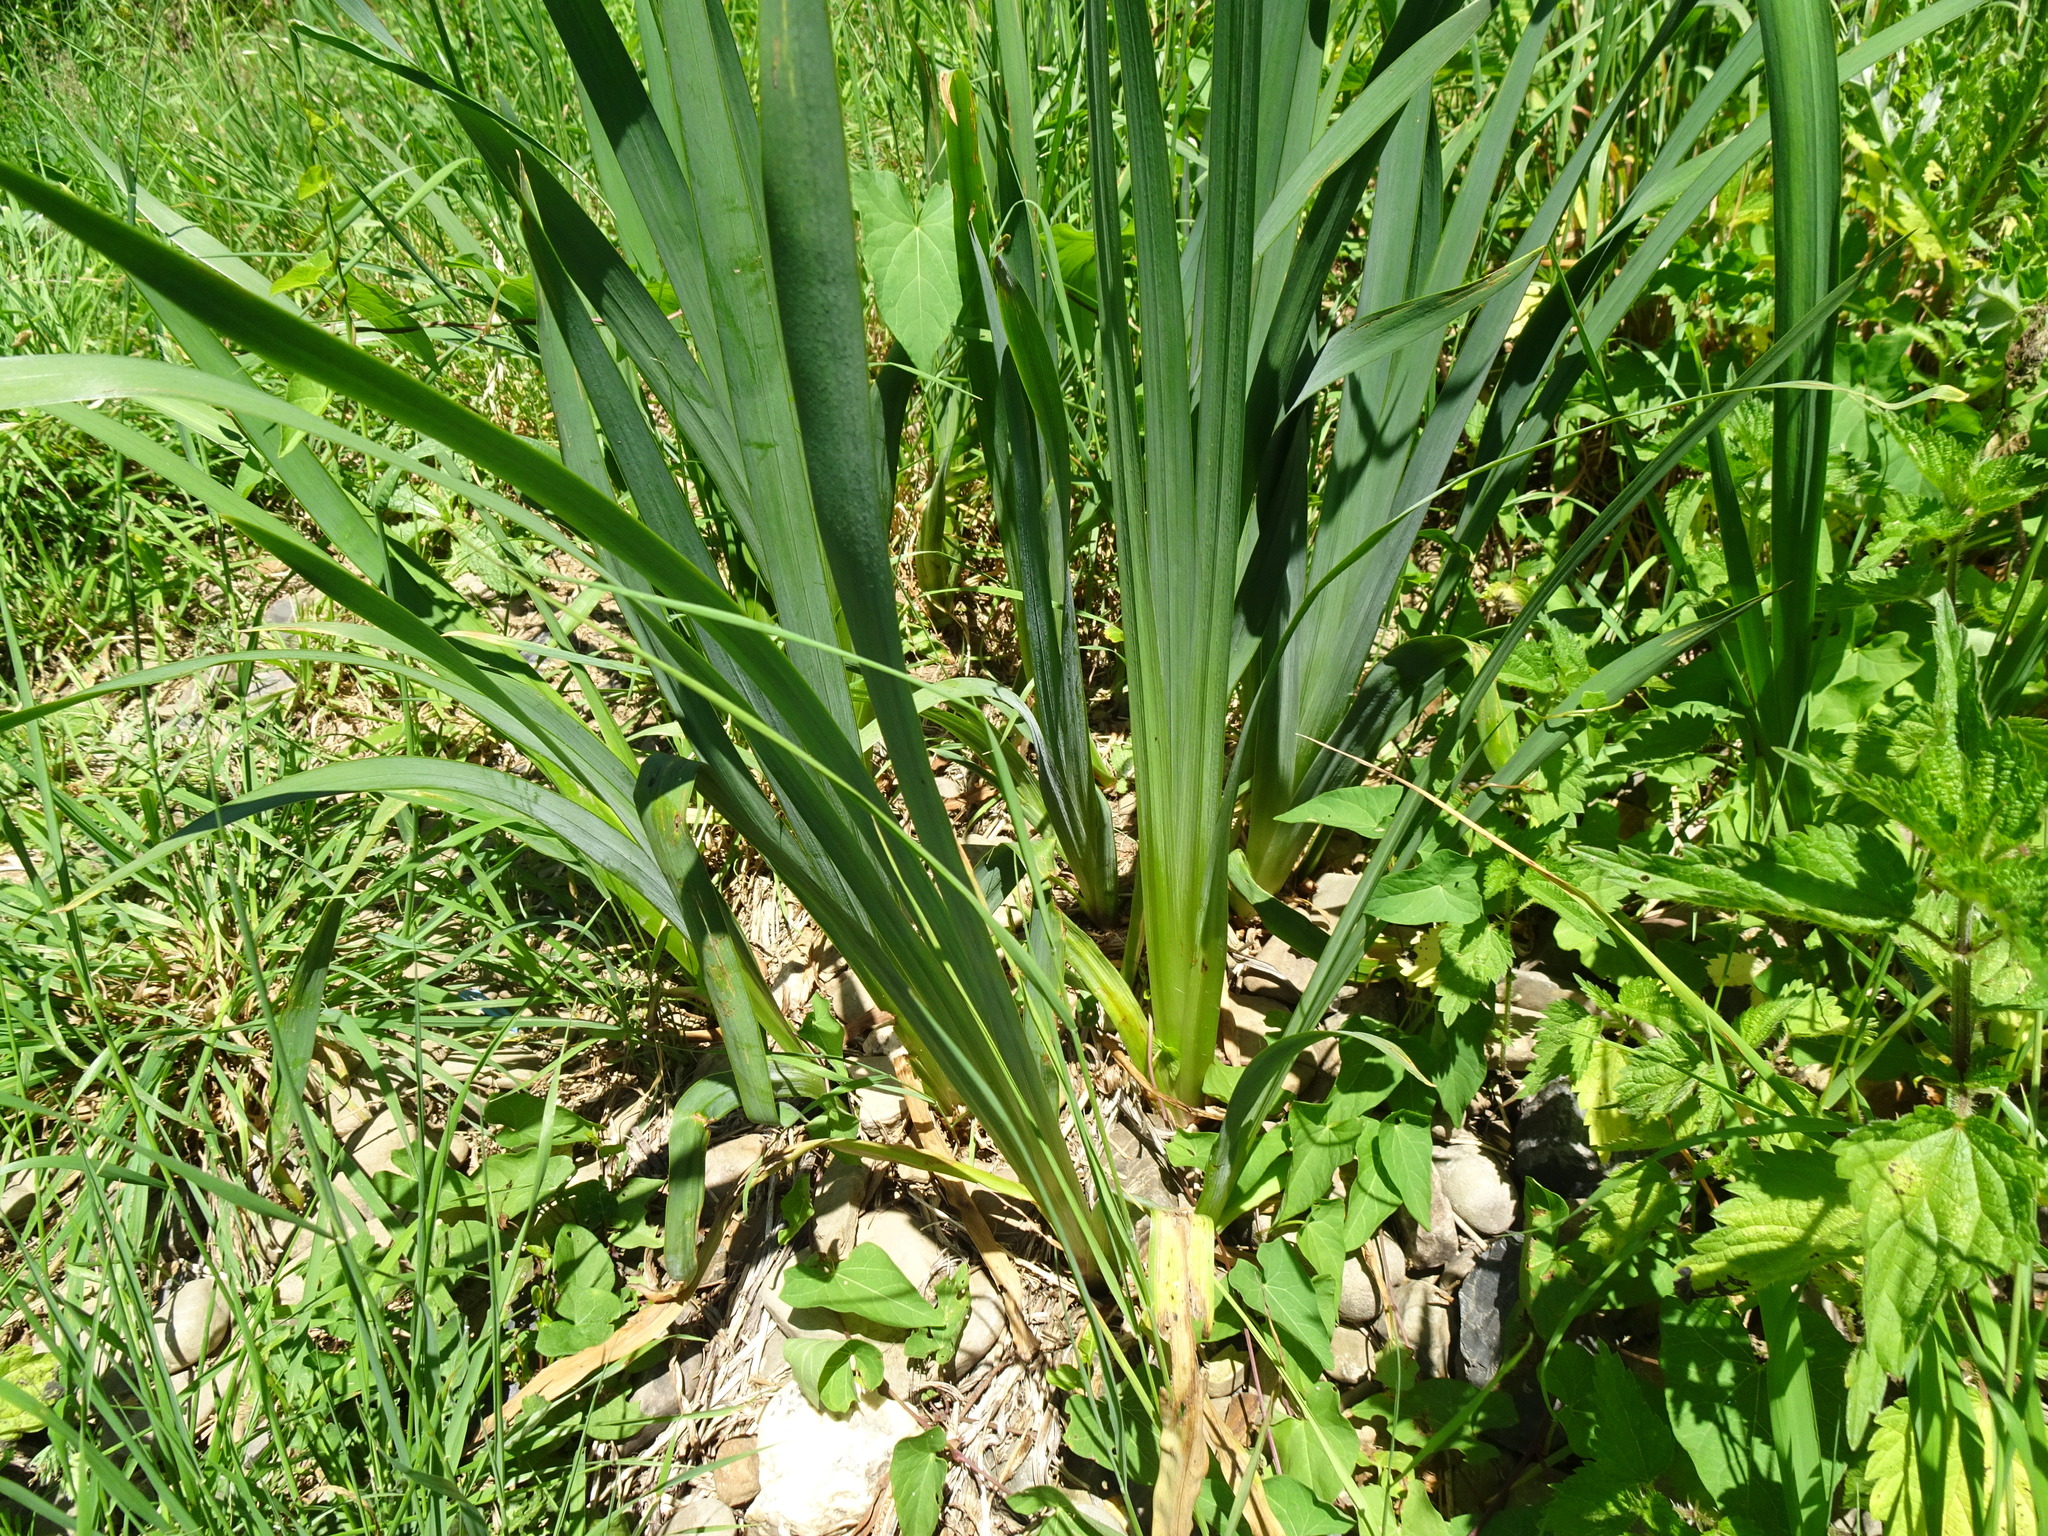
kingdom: Plantae
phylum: Tracheophyta
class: Liliopsida
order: Asparagales
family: Iridaceae
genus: Iris
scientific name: Iris pseudacorus
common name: Yellow flag
